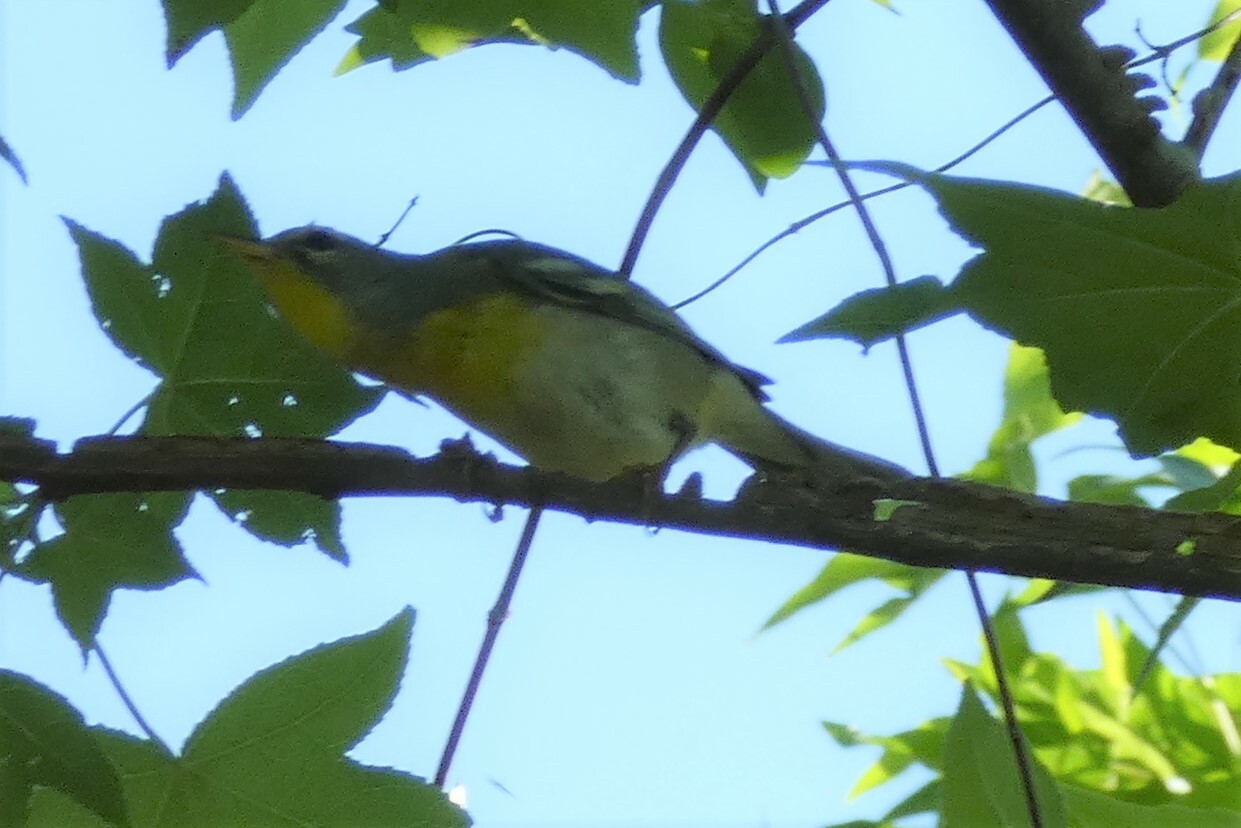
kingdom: Animalia
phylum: Chordata
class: Aves
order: Passeriformes
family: Parulidae
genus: Setophaga
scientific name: Setophaga americana
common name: Northern parula
